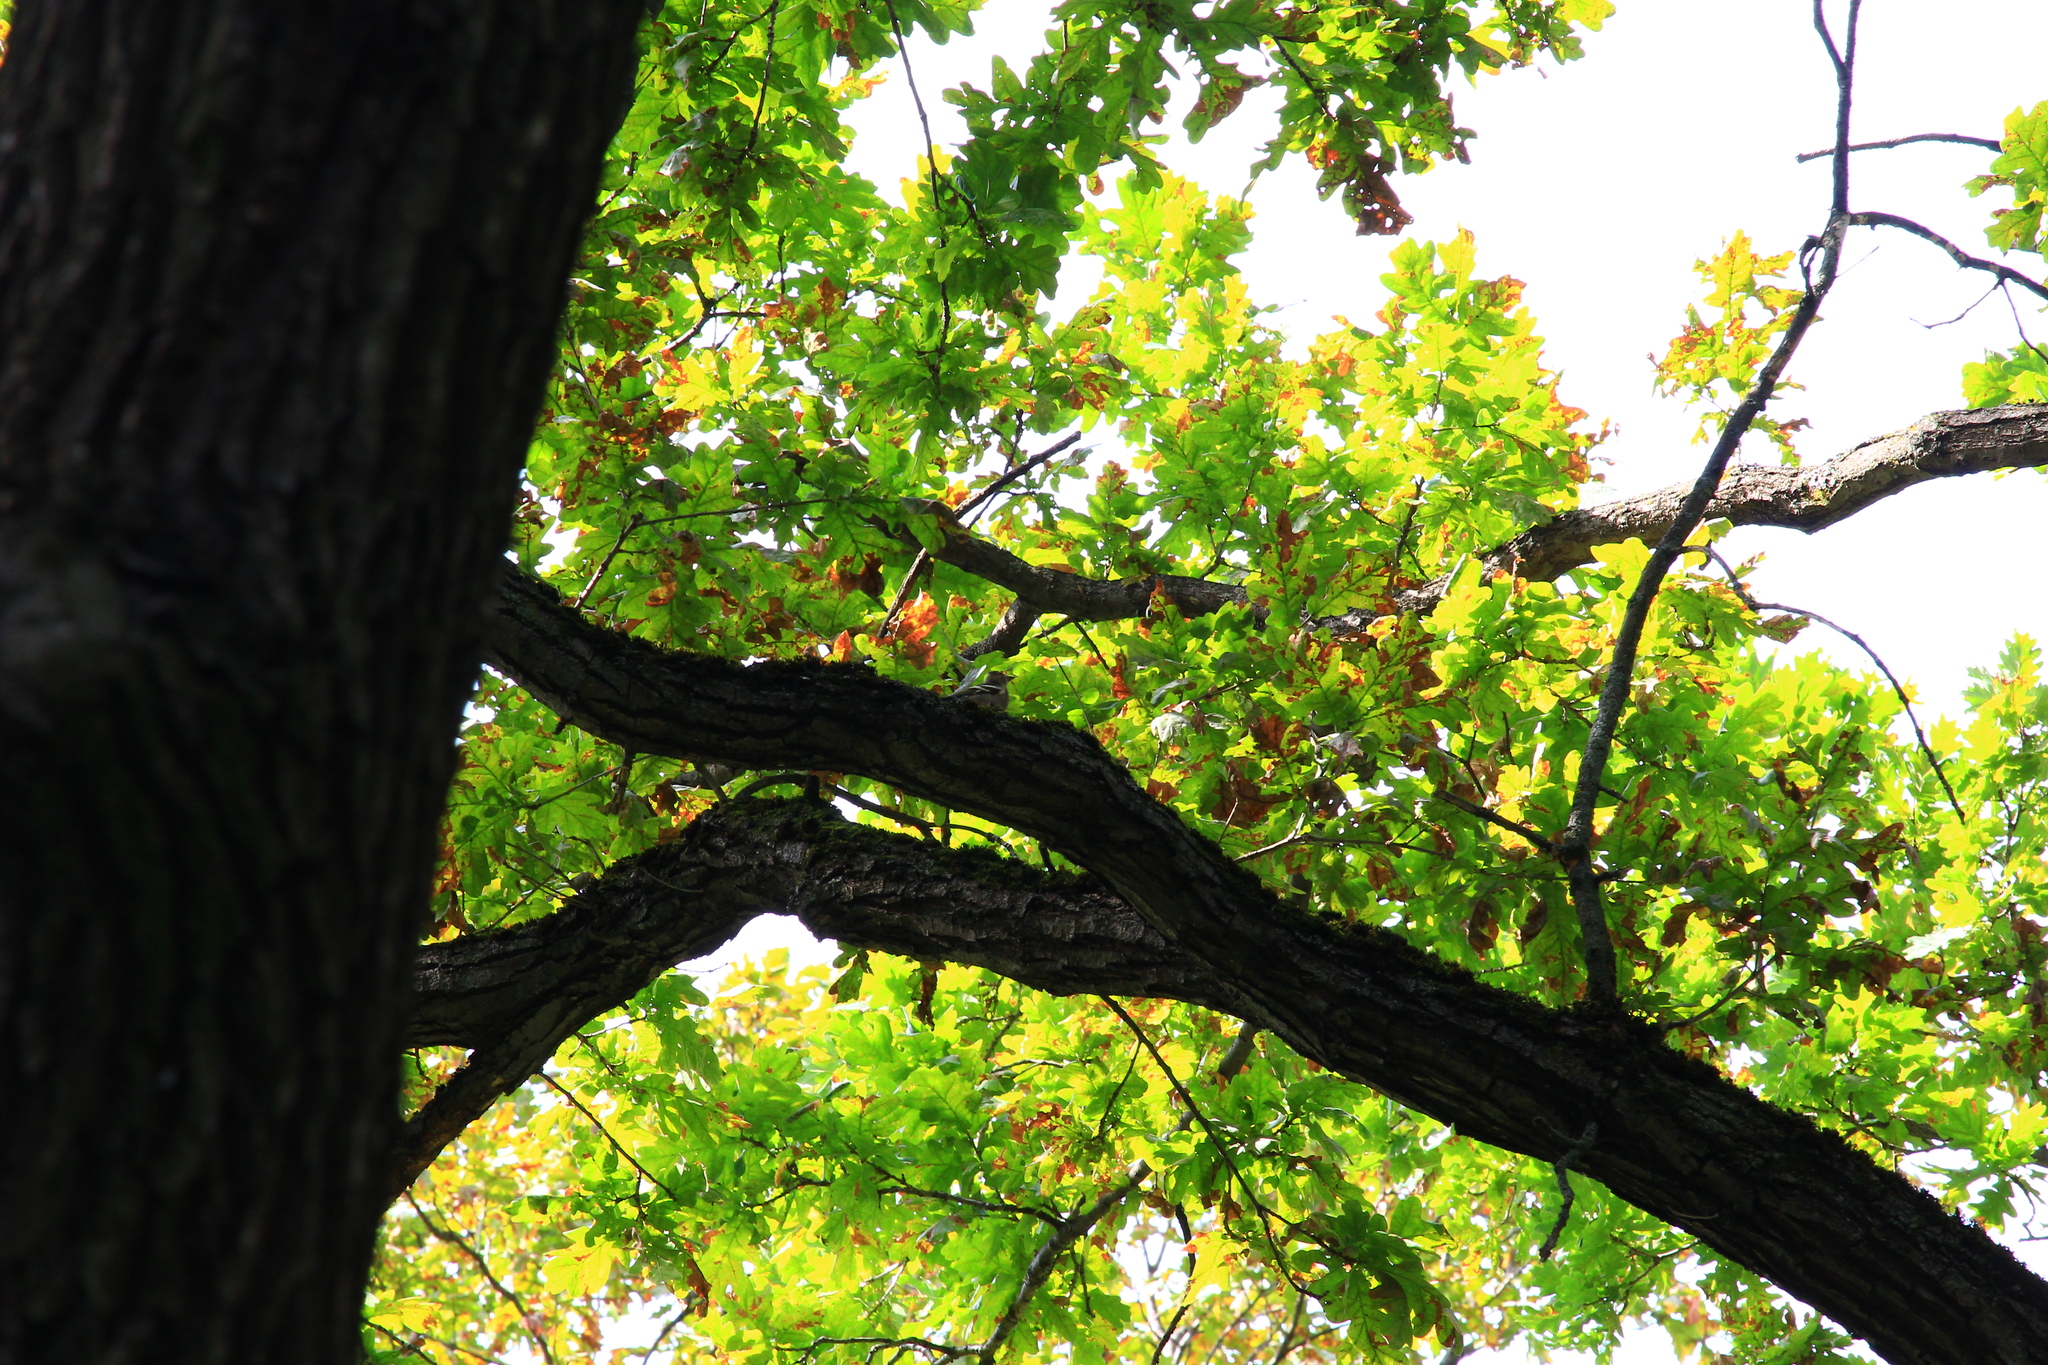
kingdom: Animalia
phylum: Chordata
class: Aves
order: Passeriformes
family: Fringillidae
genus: Fringilla
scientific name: Fringilla coelebs
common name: Common chaffinch
